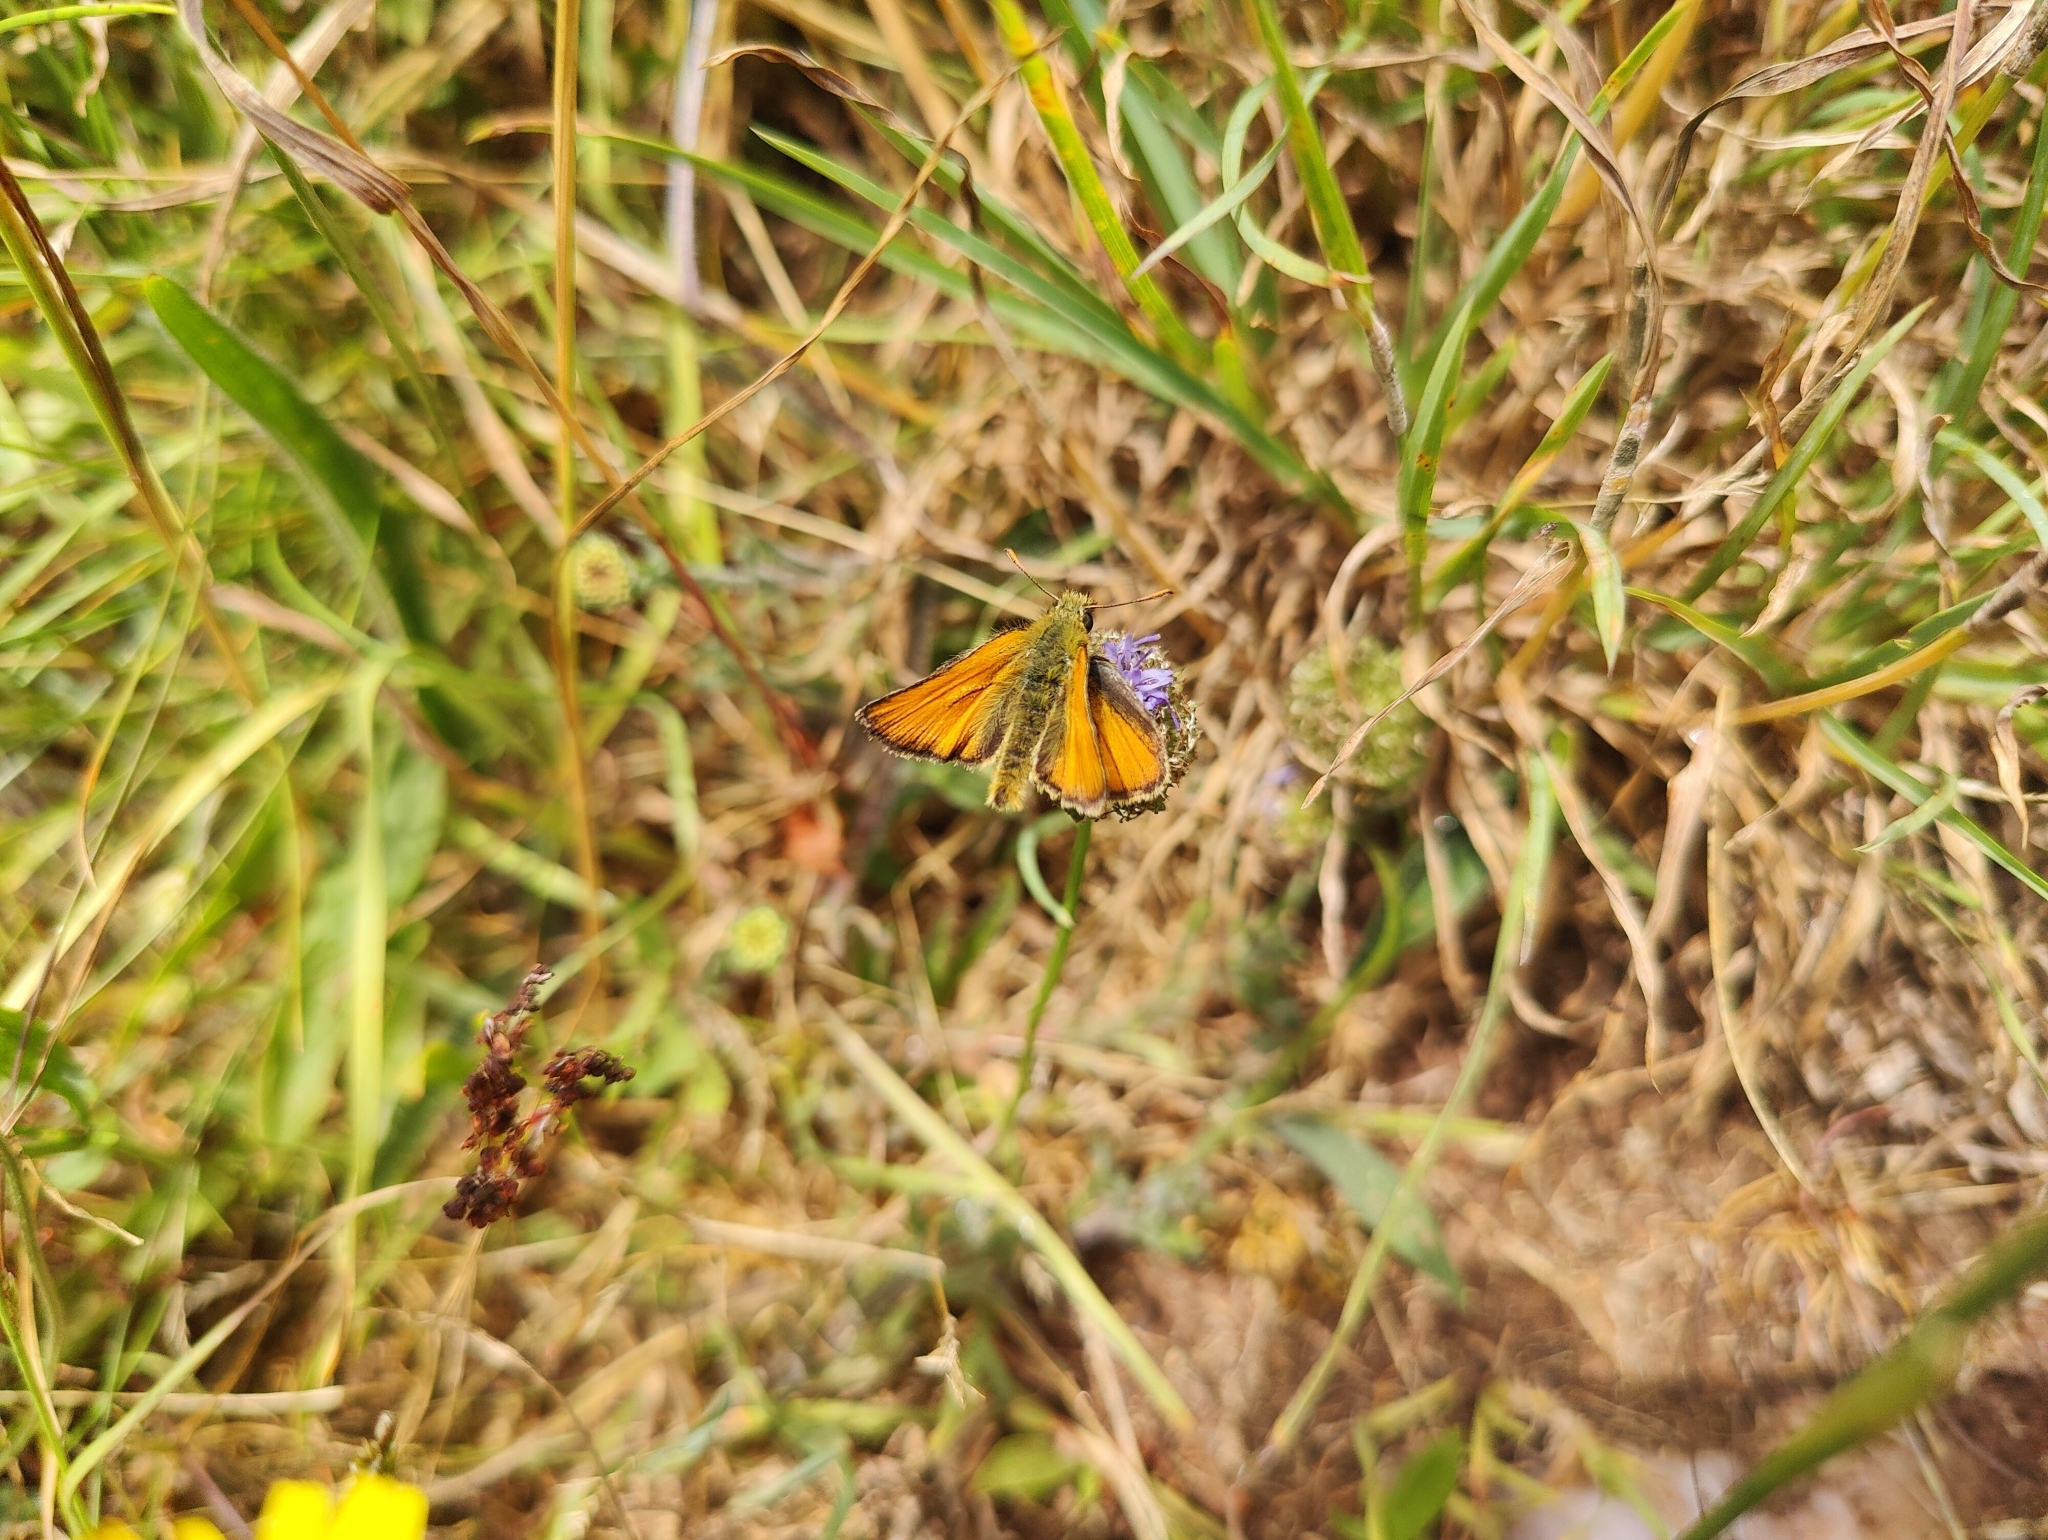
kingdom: Animalia
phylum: Arthropoda
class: Insecta
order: Lepidoptera
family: Hesperiidae
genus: Thymelicus
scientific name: Thymelicus sylvestris
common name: Small skipper
